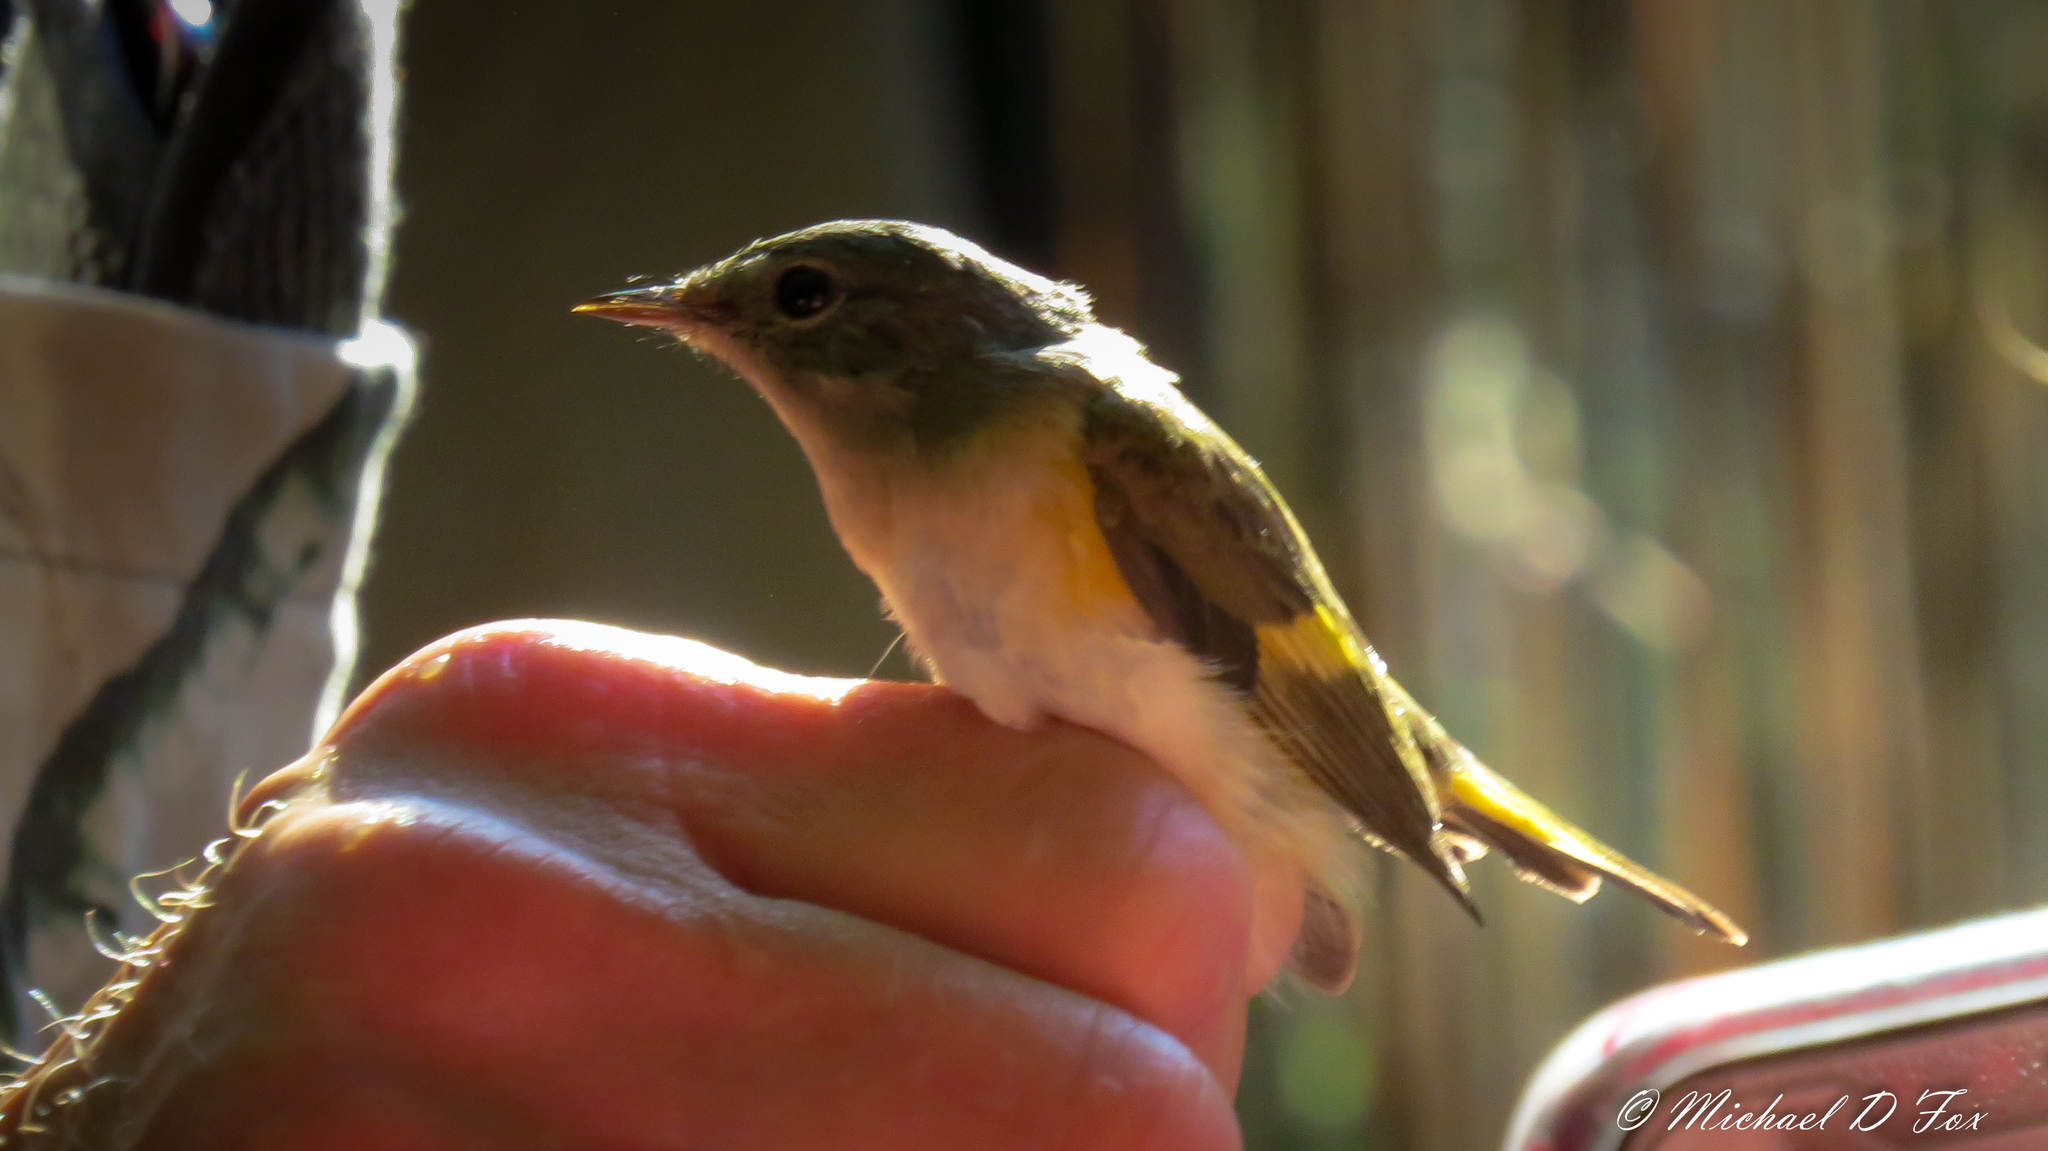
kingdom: Animalia
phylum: Chordata
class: Aves
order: Passeriformes
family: Parulidae
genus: Setophaga
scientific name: Setophaga ruticilla
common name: American redstart
